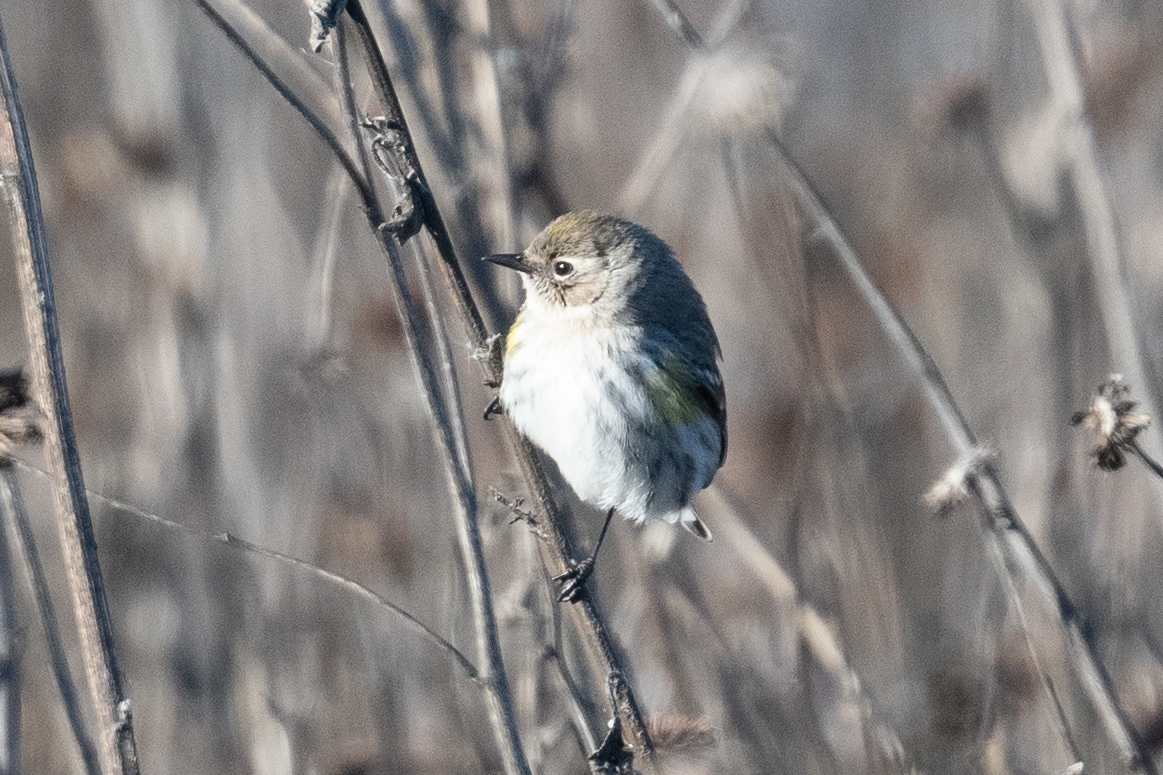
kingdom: Animalia
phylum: Chordata
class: Aves
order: Passeriformes
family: Parulidae
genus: Setophaga
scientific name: Setophaga coronata
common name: Myrtle warbler
